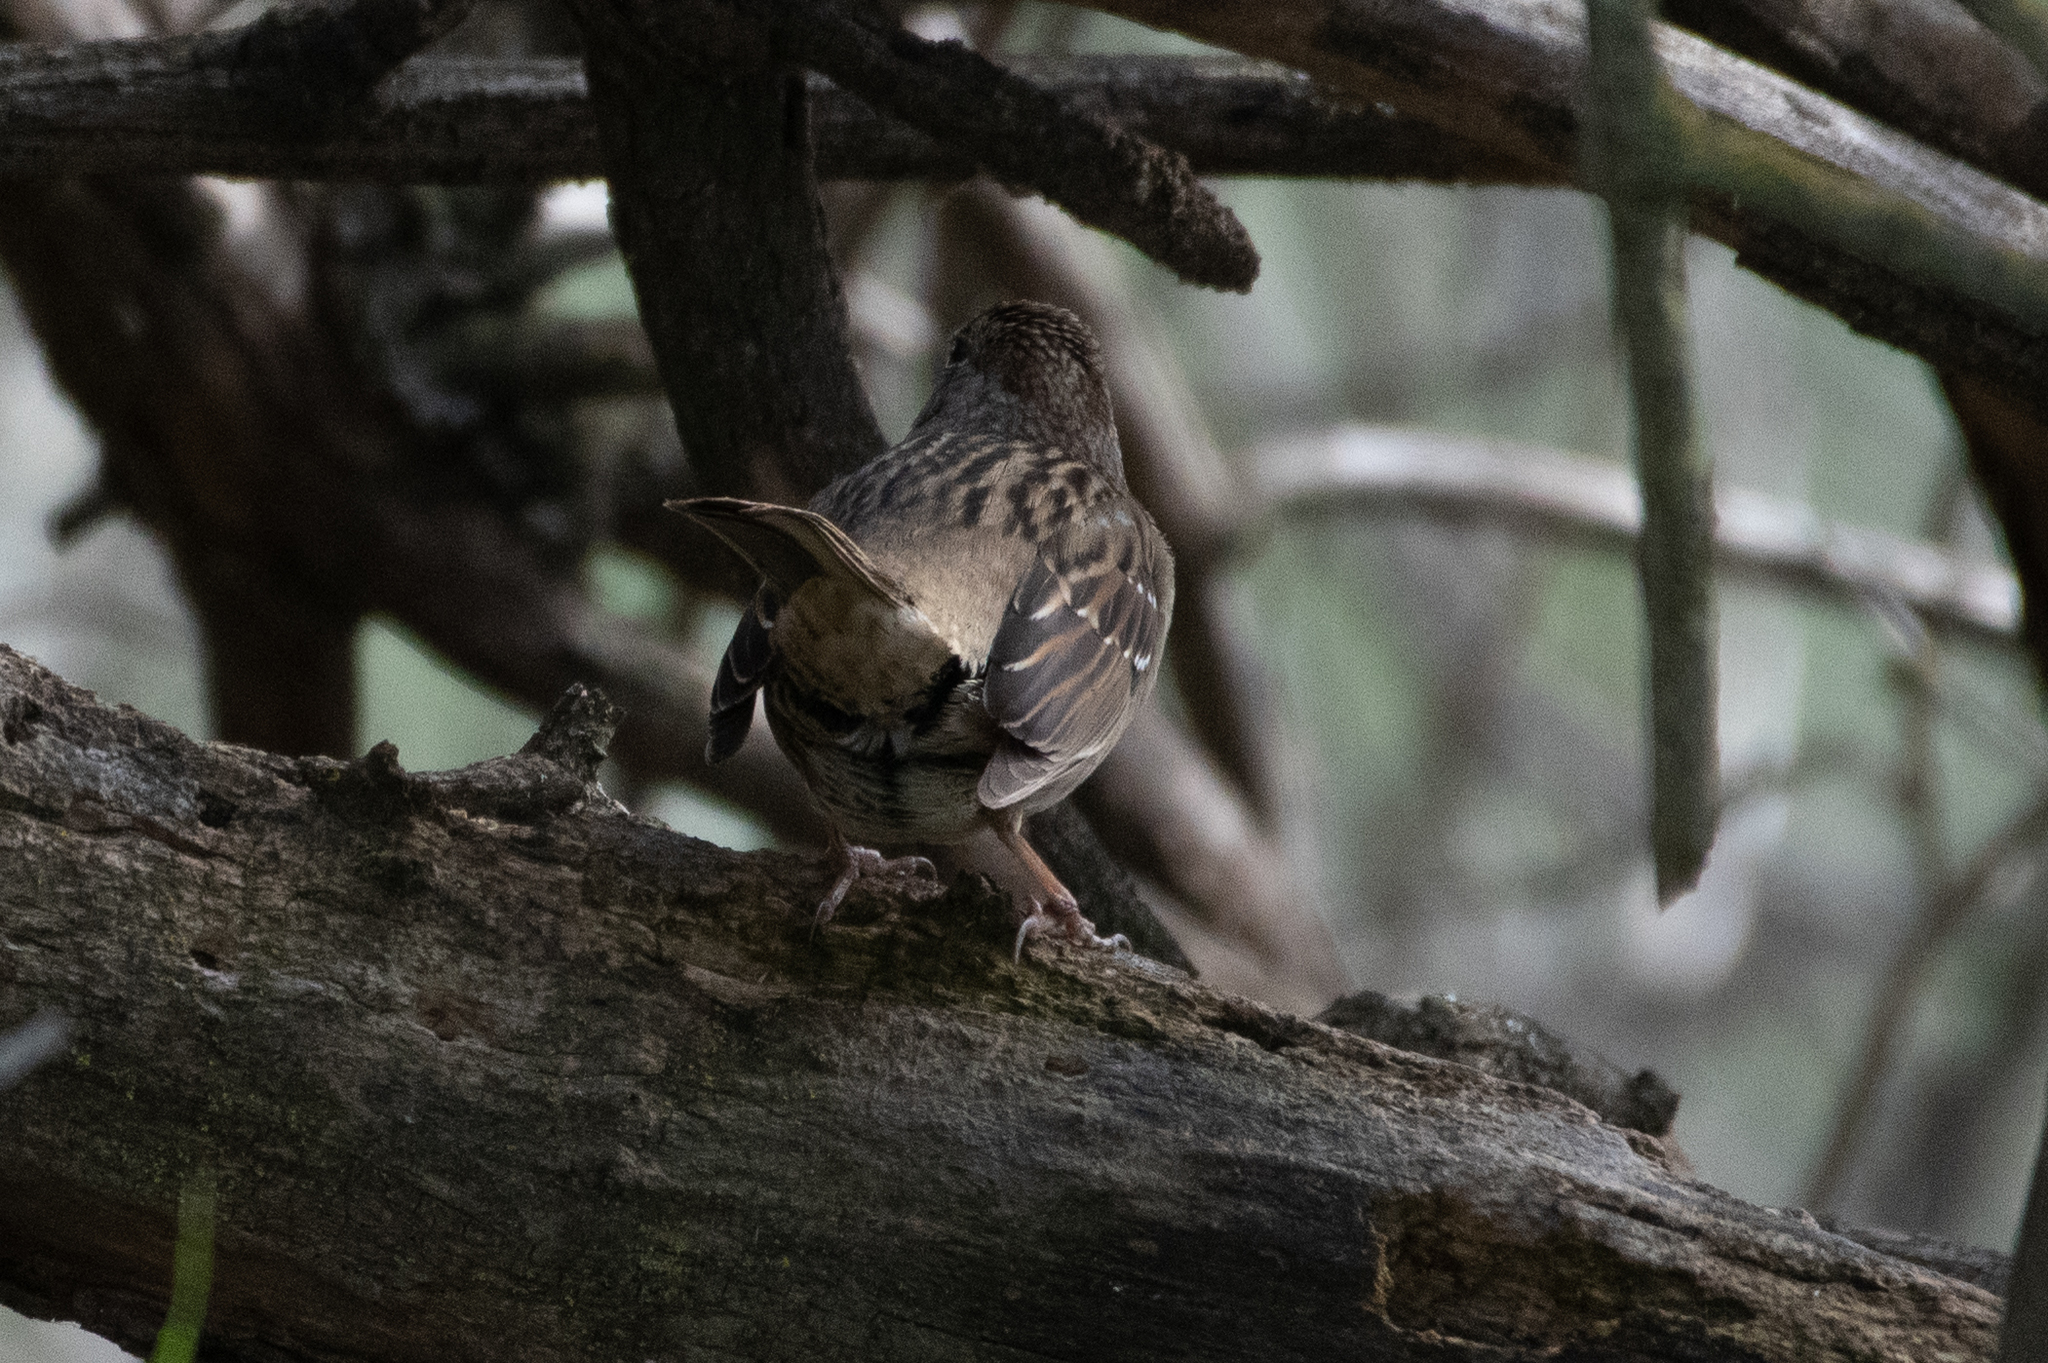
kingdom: Animalia
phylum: Chordata
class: Aves
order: Passeriformes
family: Passerellidae
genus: Zonotrichia
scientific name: Zonotrichia atricapilla
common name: Golden-crowned sparrow
